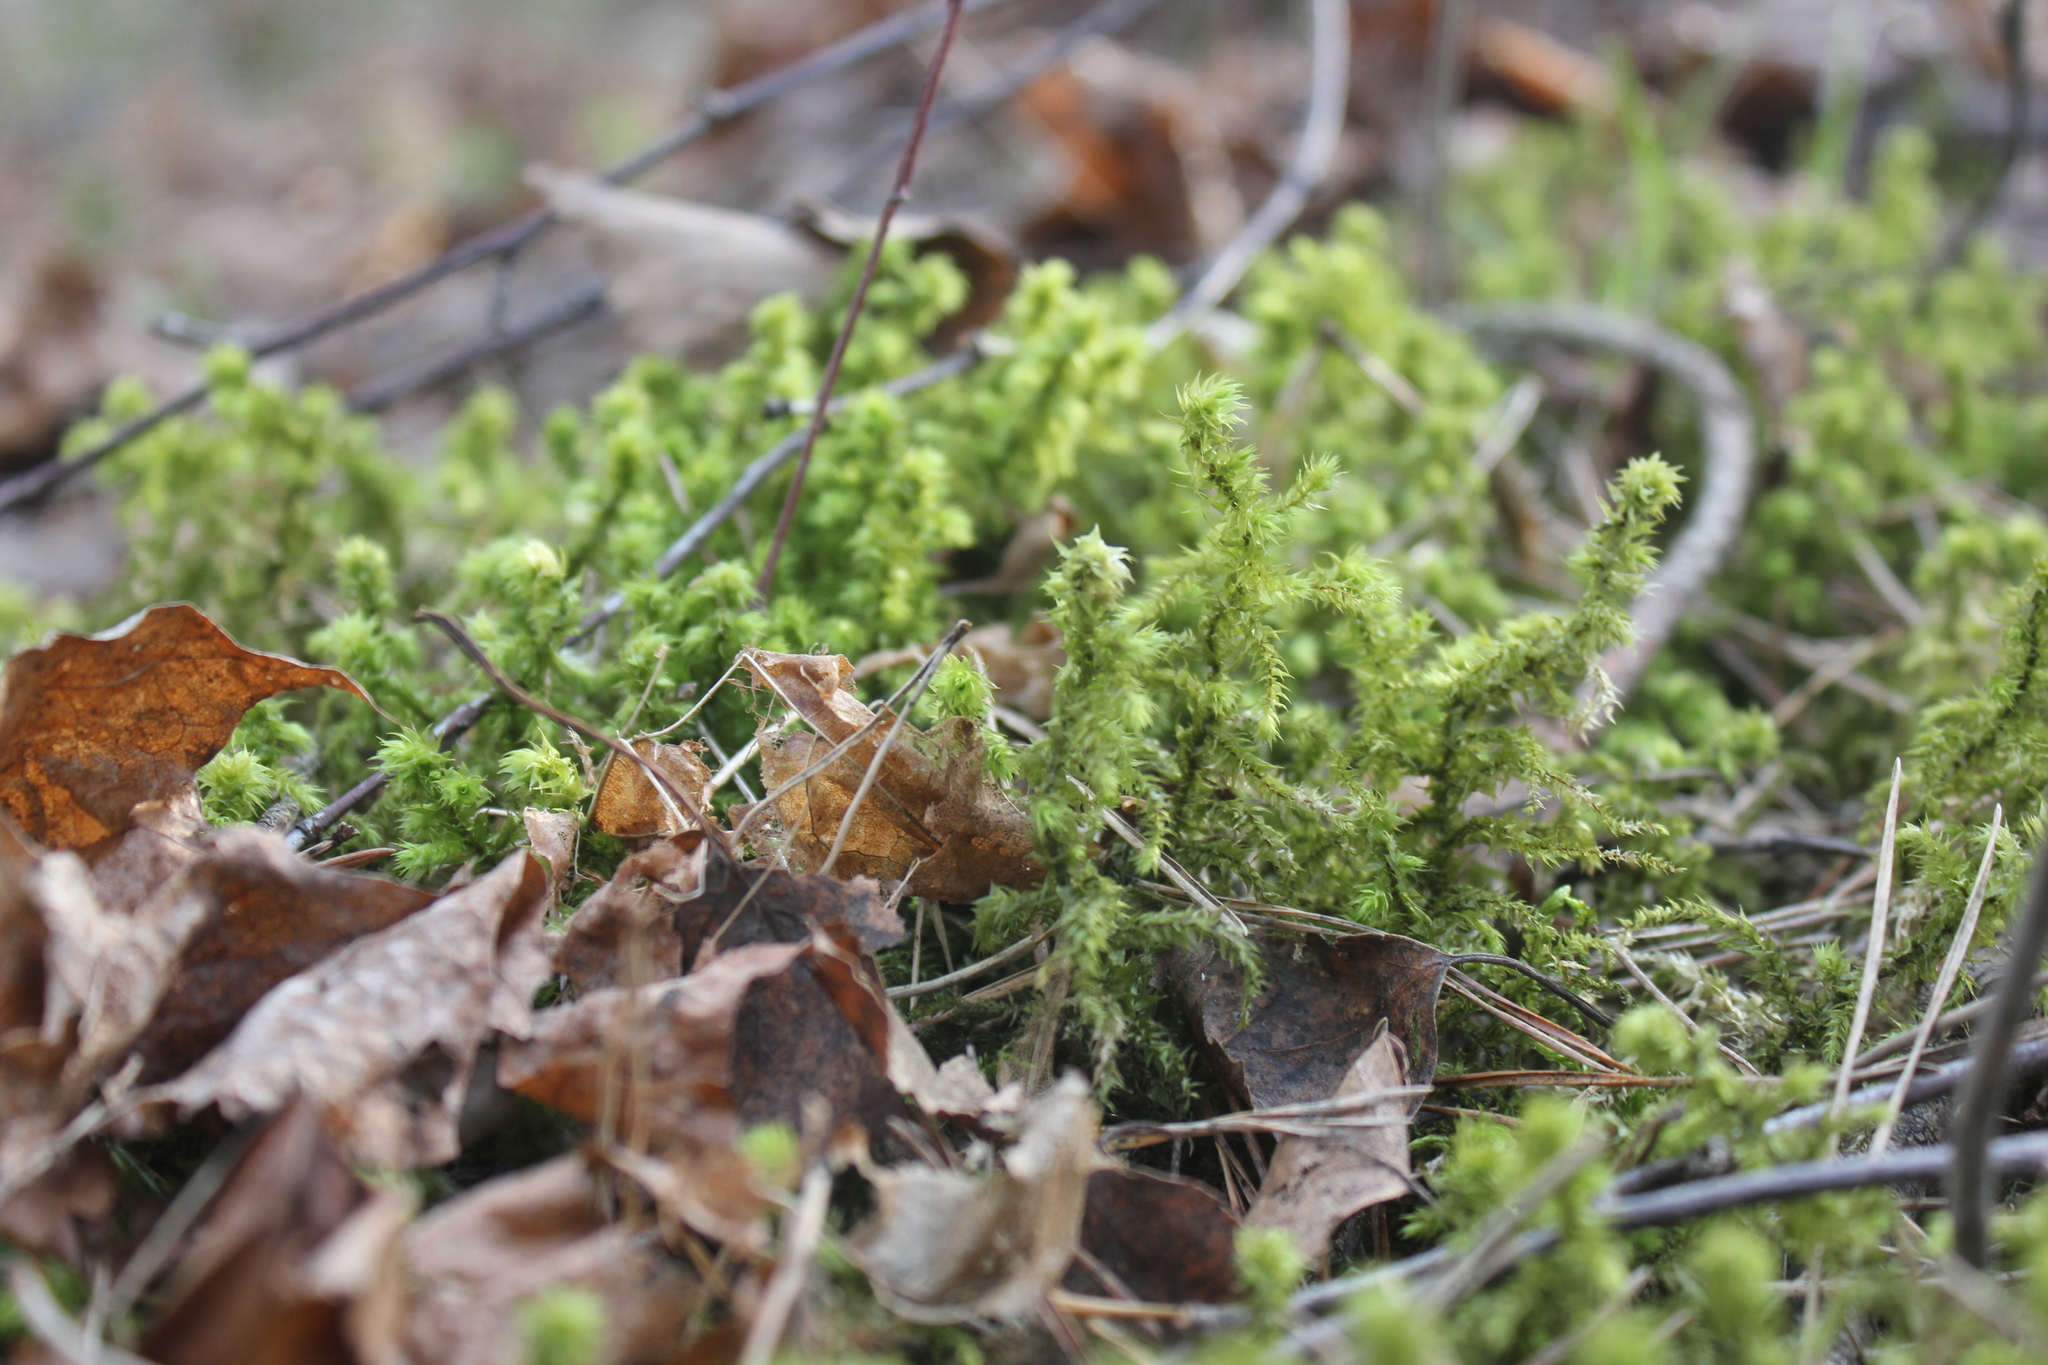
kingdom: Plantae
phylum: Bryophyta
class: Bryopsida
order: Hypnales
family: Hylocomiaceae
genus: Hylocomiadelphus
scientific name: Hylocomiadelphus triquetrus
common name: Rough goose neck moss
